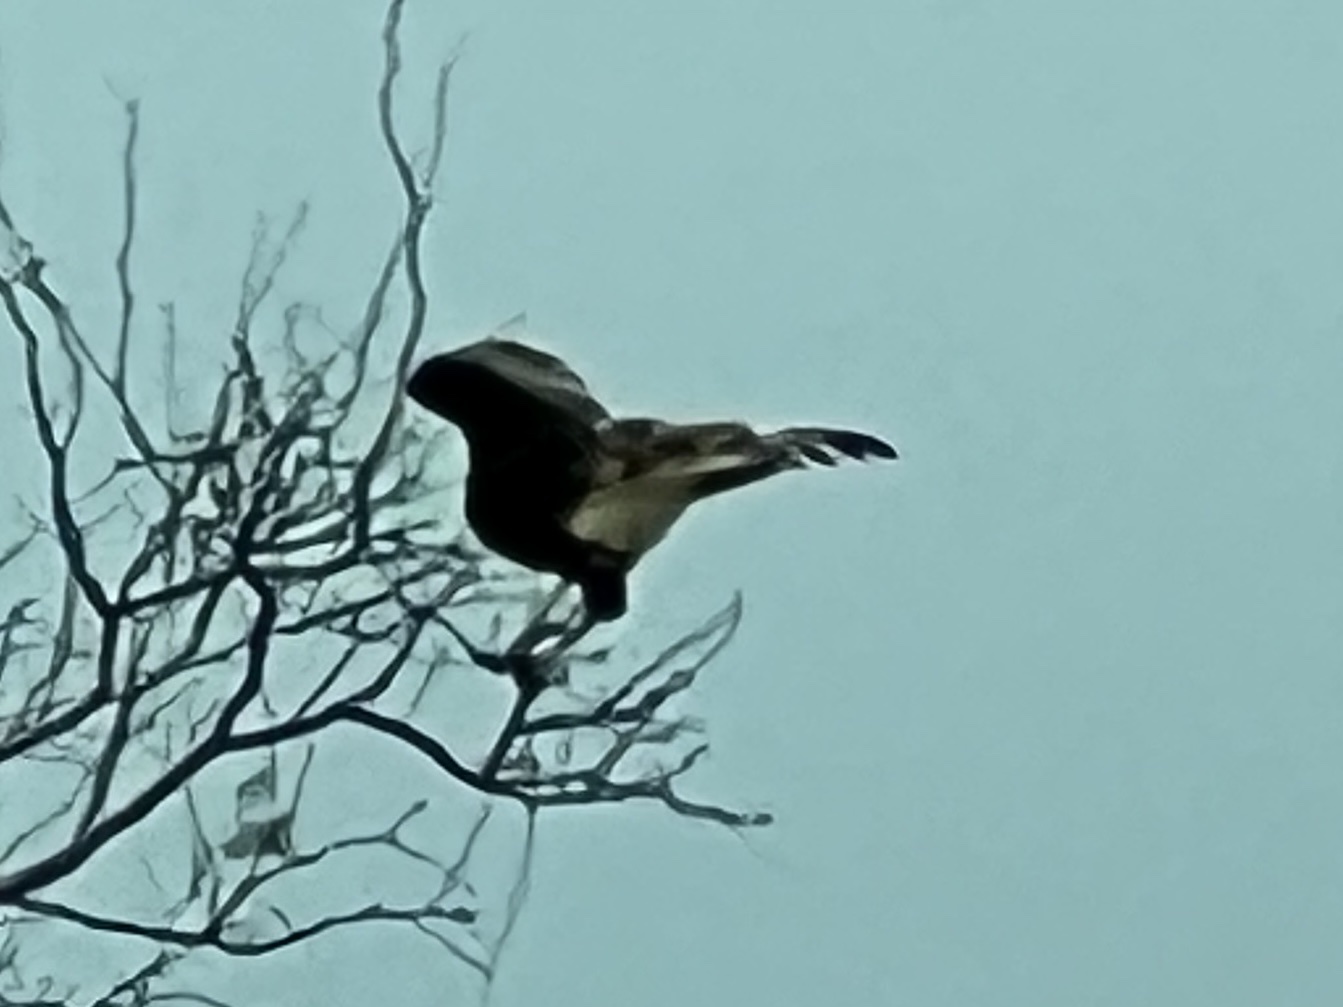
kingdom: Animalia
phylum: Chordata
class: Aves
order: Falconiformes
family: Falconidae
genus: Caracara
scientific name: Caracara plancus
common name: Southern caracara
